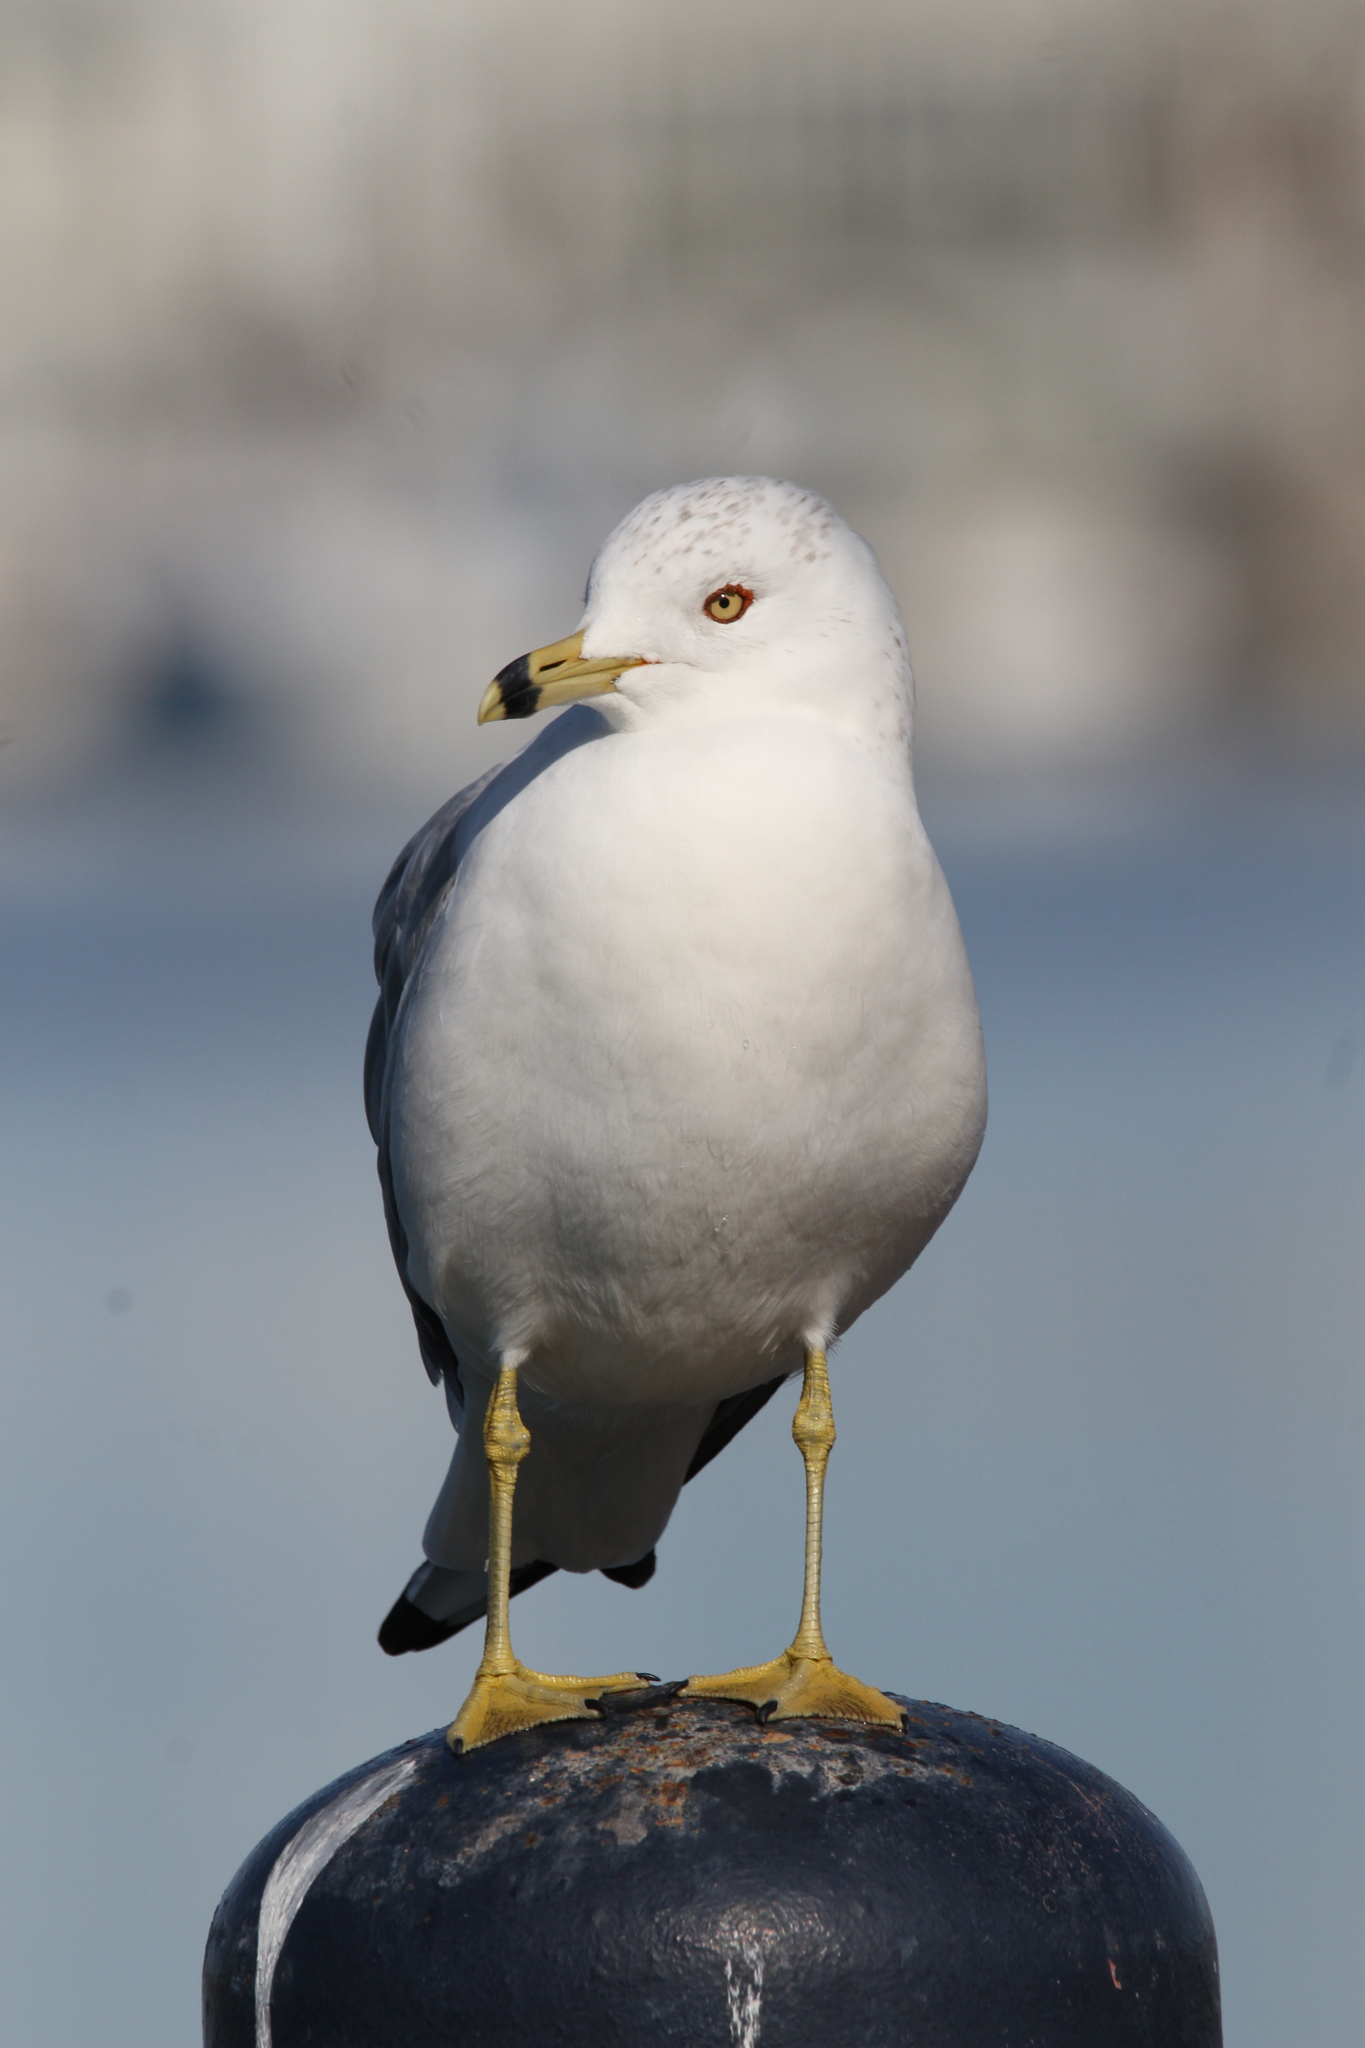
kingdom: Animalia
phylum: Chordata
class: Aves
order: Charadriiformes
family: Laridae
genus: Larus
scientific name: Larus delawarensis
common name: Ring-billed gull
